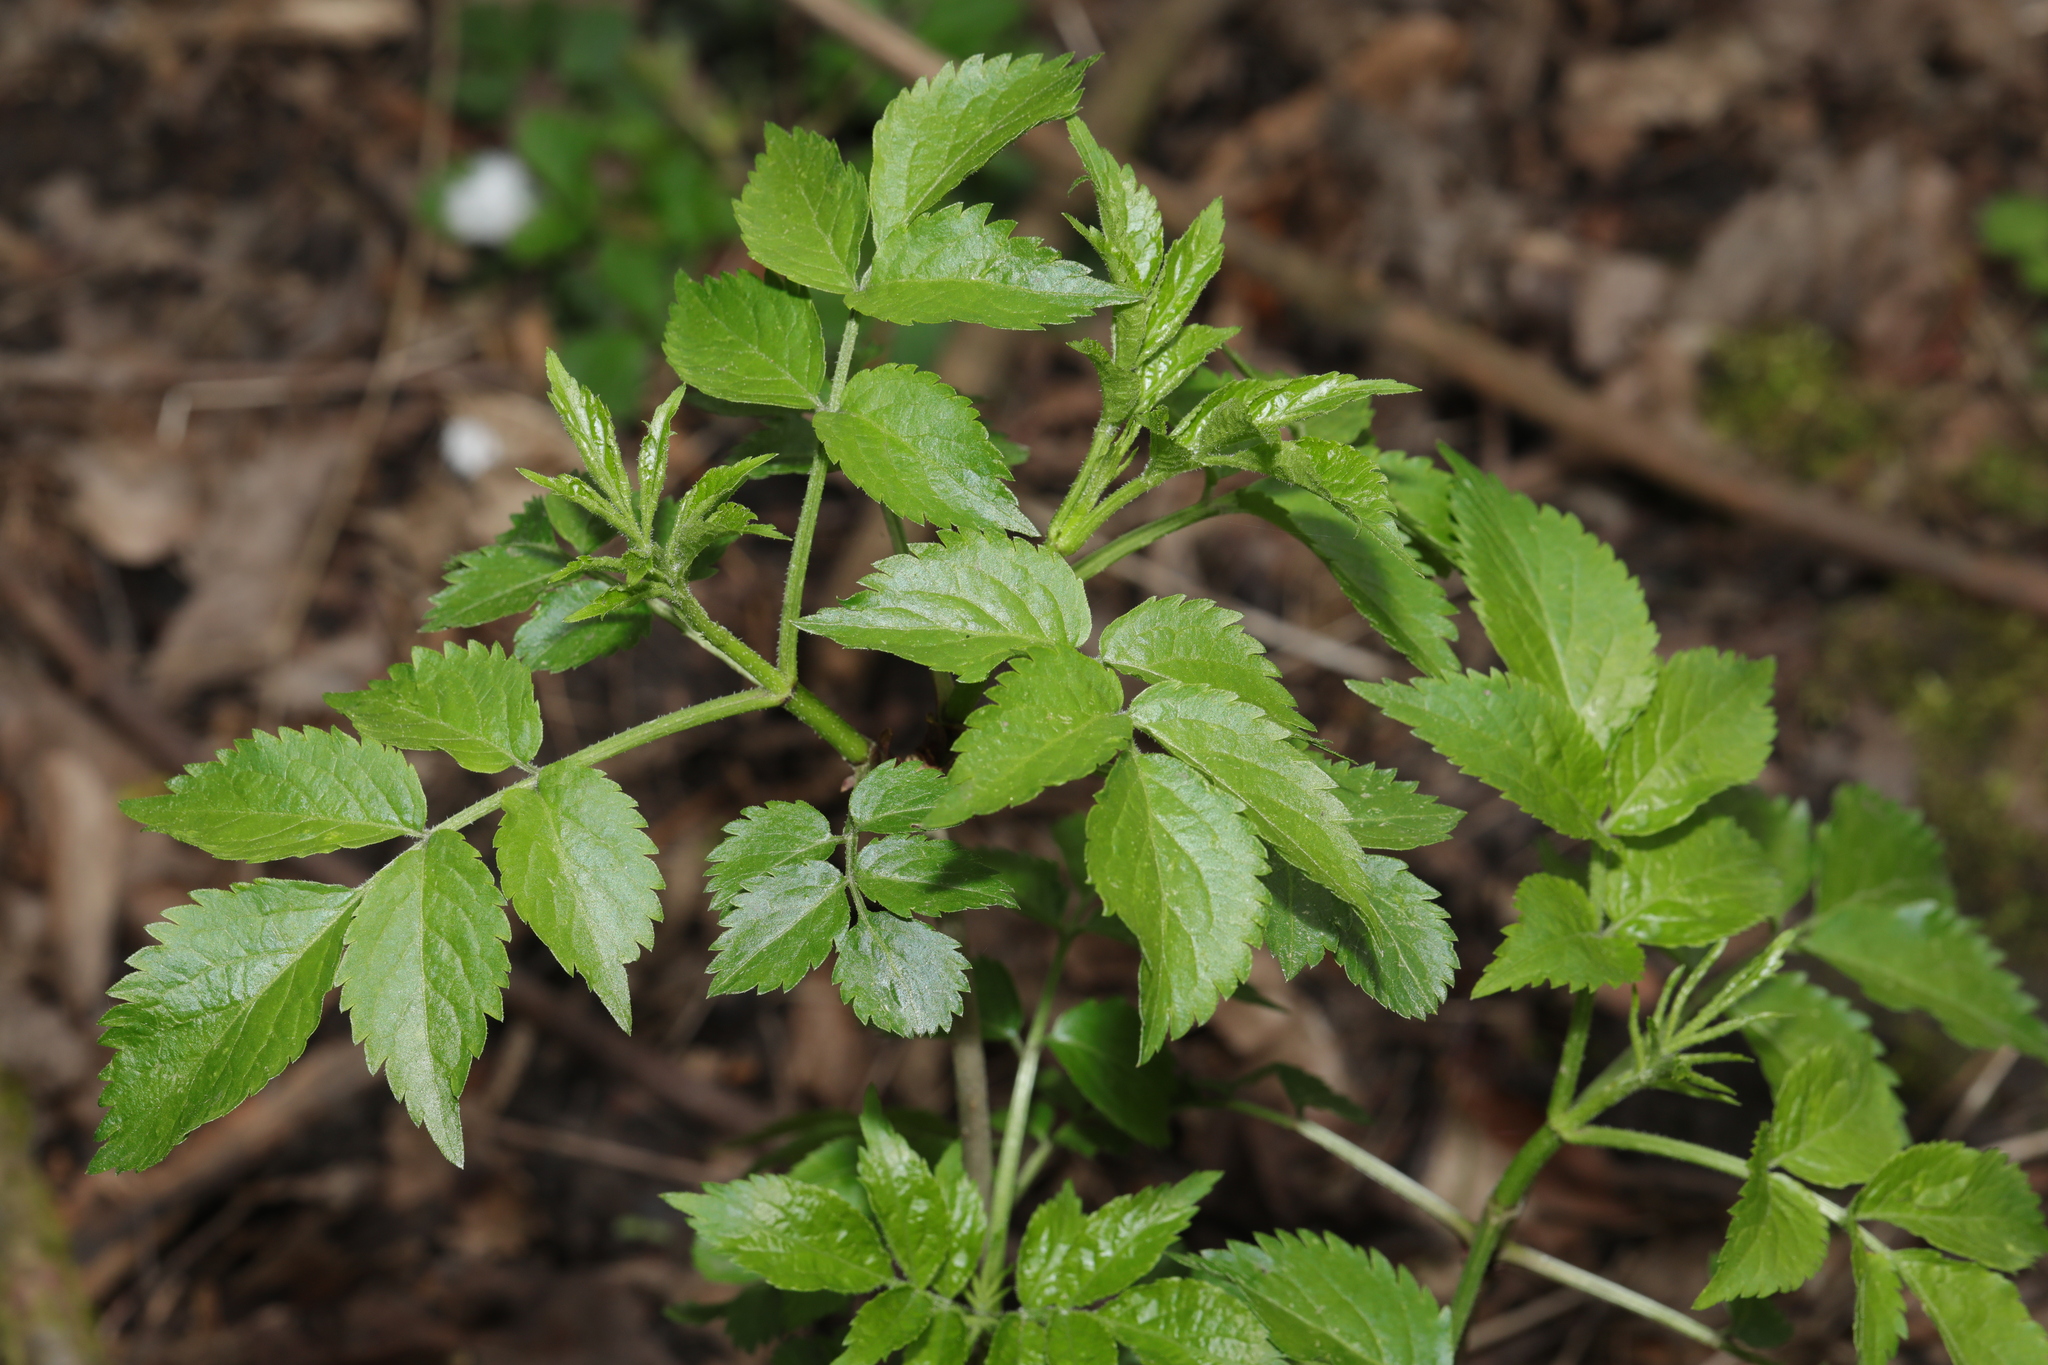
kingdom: Plantae
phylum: Tracheophyta
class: Magnoliopsida
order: Dipsacales
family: Viburnaceae
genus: Sambucus
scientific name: Sambucus nigra
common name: Elder
